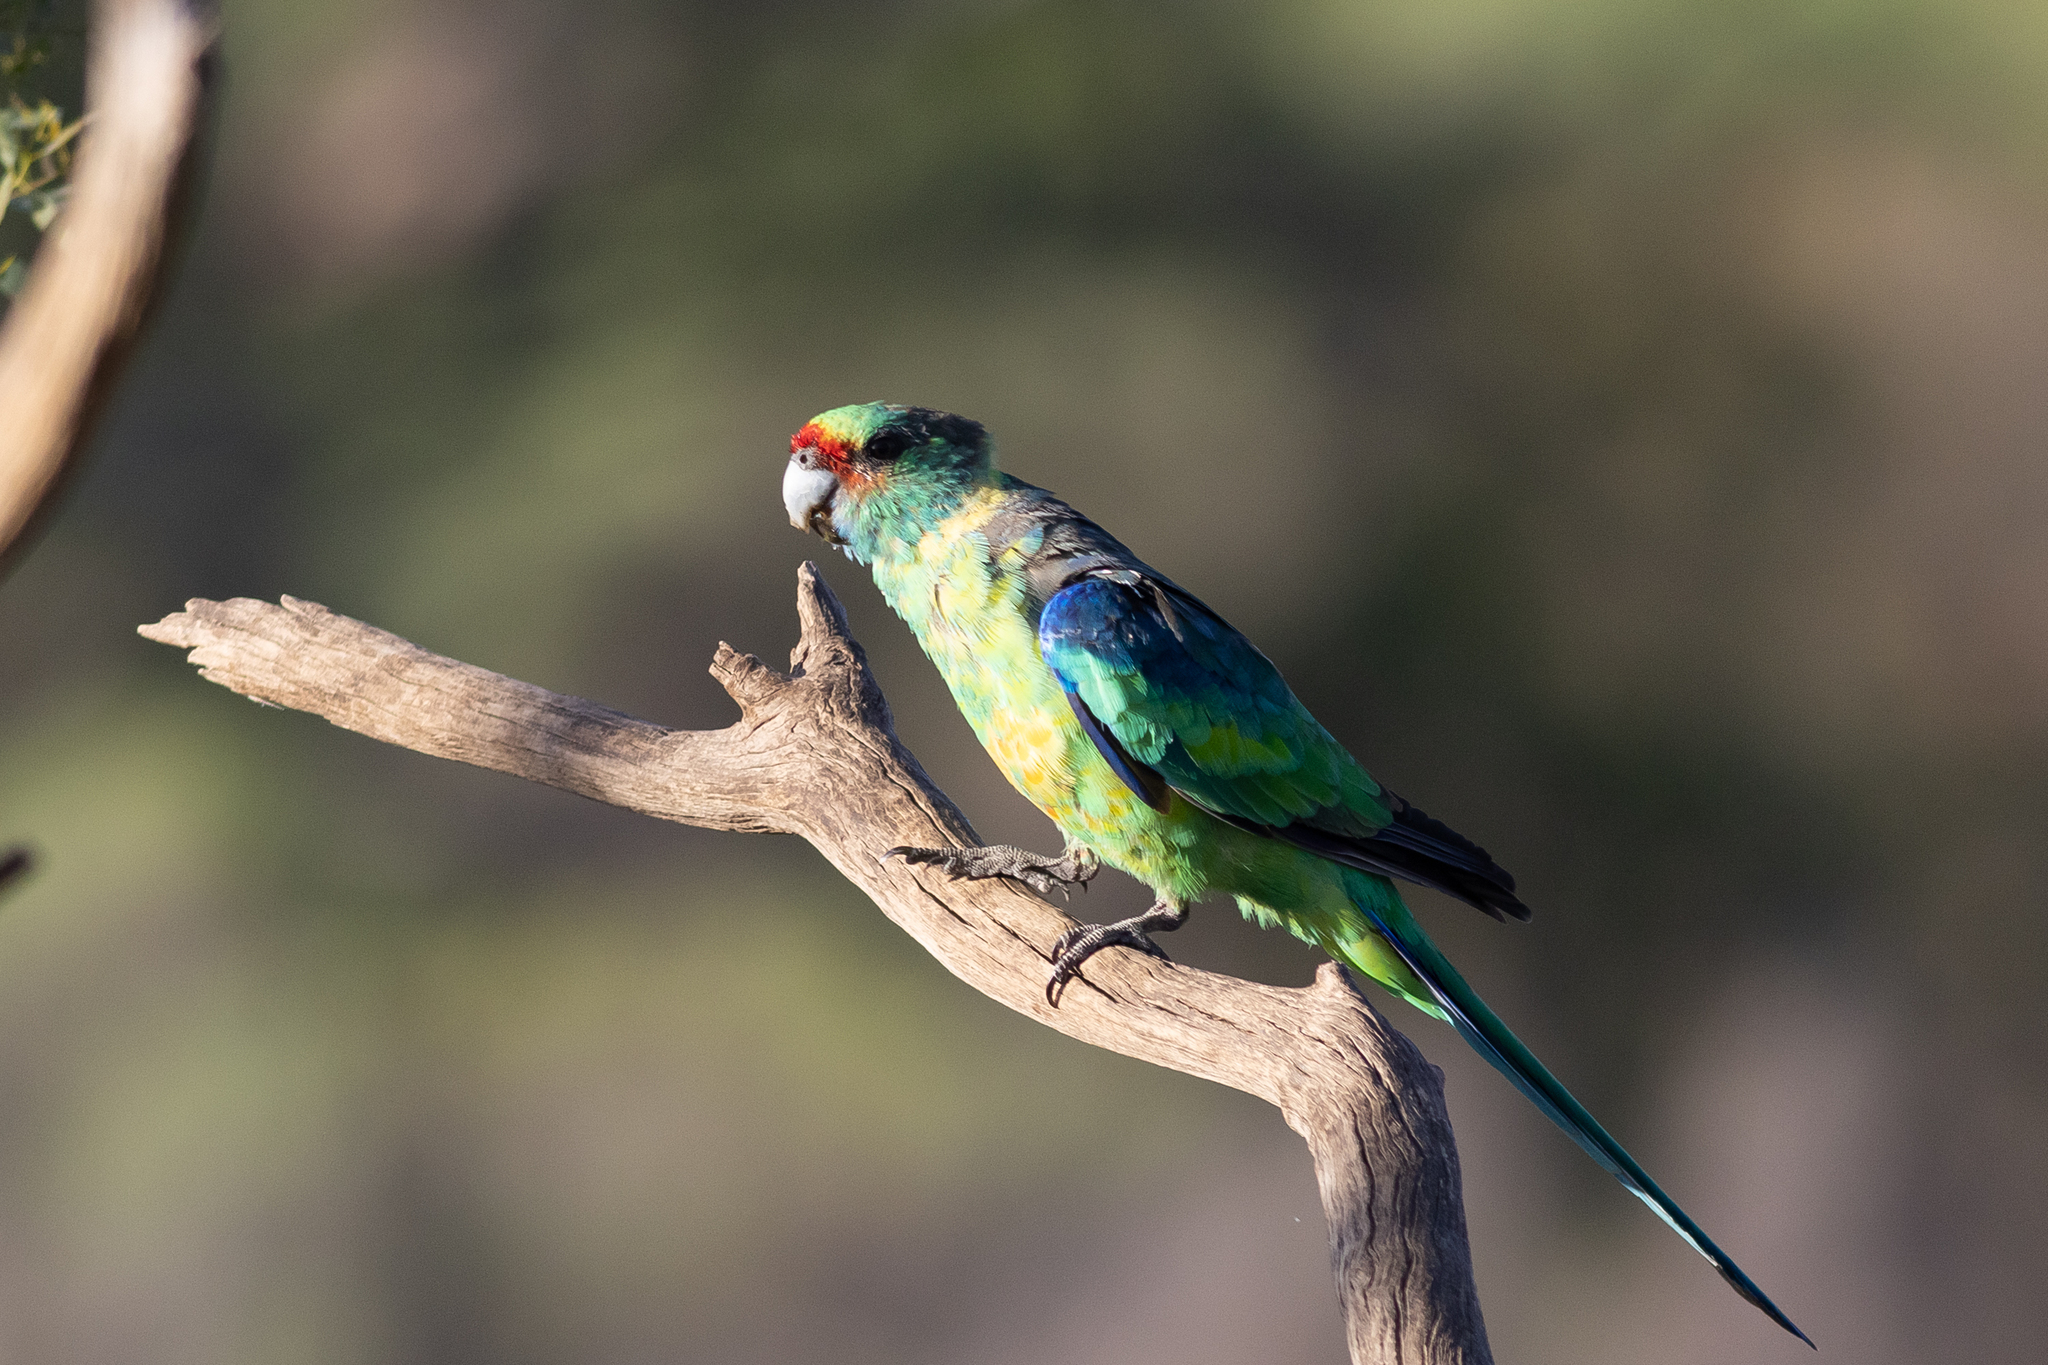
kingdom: Animalia
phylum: Chordata
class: Aves
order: Psittaciformes
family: Psittacidae
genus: Barnardius
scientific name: Barnardius zonarius
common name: Australian ringneck
